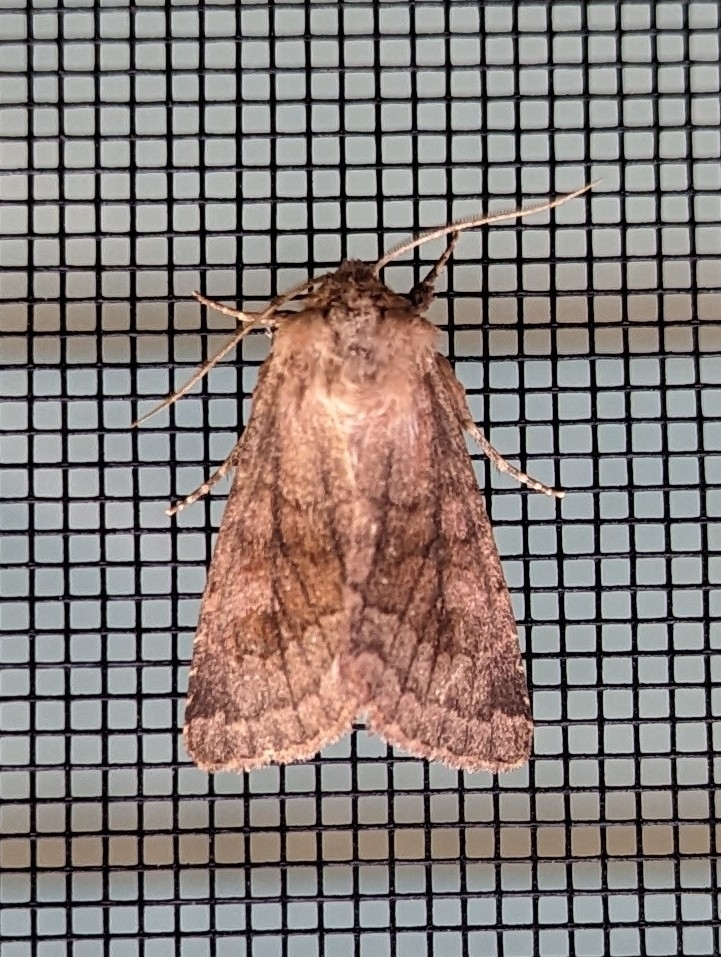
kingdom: Animalia
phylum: Arthropoda
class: Insecta
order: Lepidoptera
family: Noctuidae
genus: Nephelodes
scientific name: Nephelodes minians
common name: Bronzed cutworm
